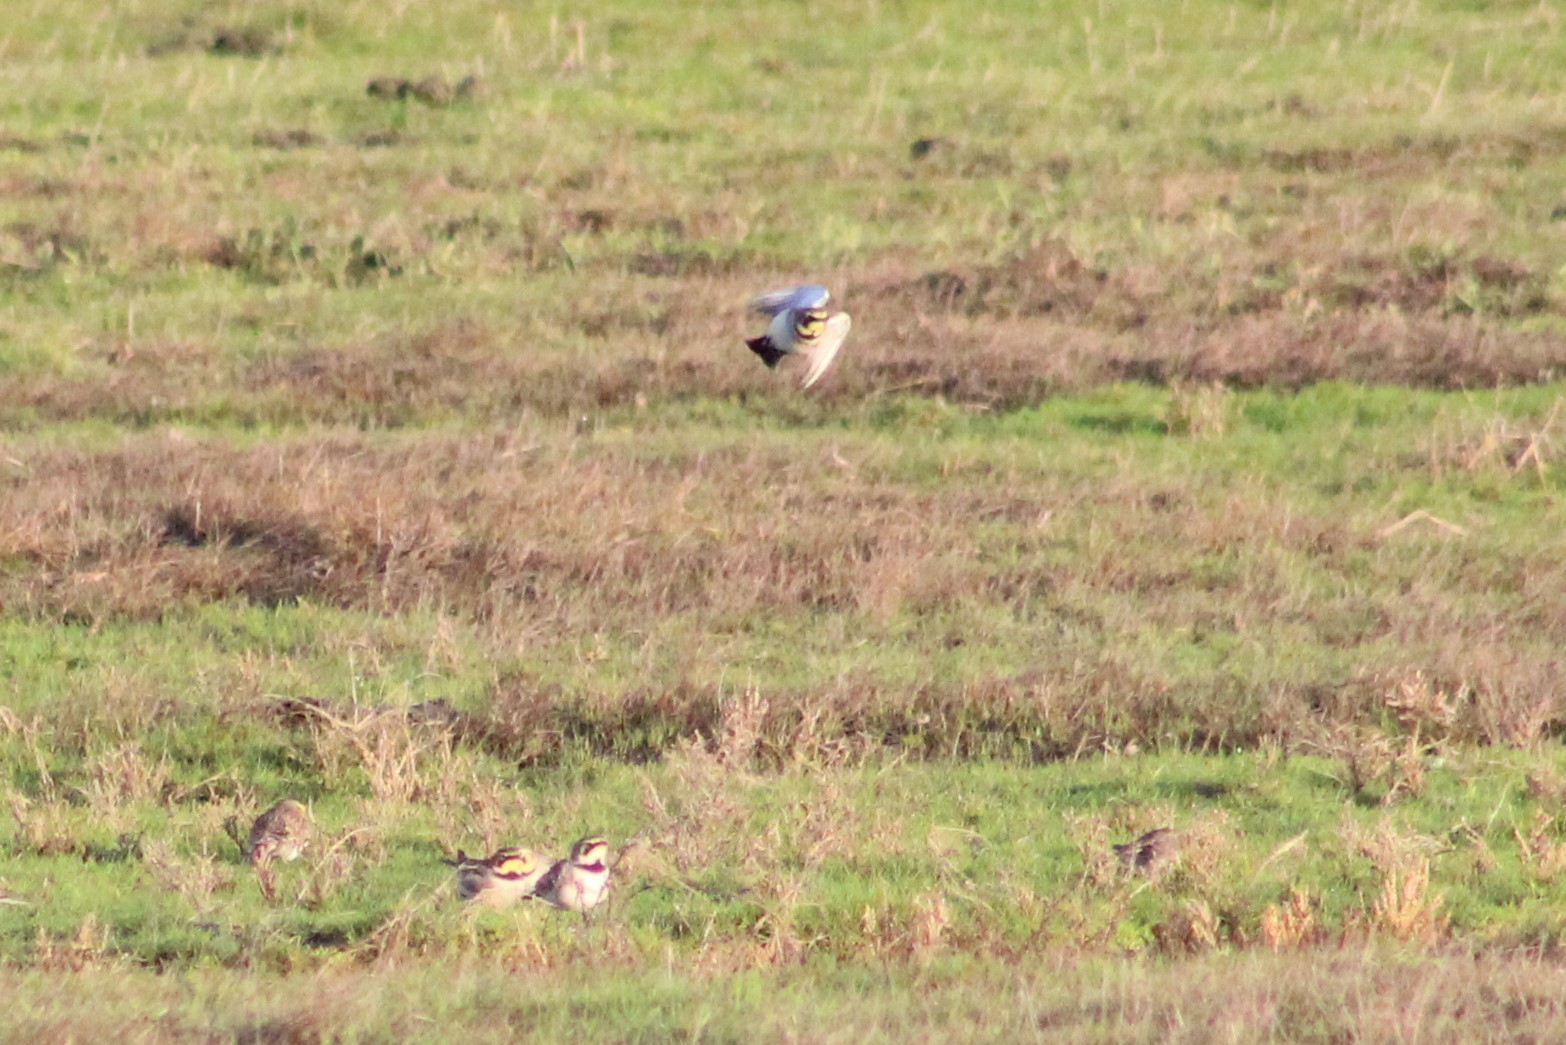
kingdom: Animalia
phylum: Chordata
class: Aves
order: Passeriformes
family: Alaudidae
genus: Eremophila
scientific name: Eremophila alpestris
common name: Horned lark
